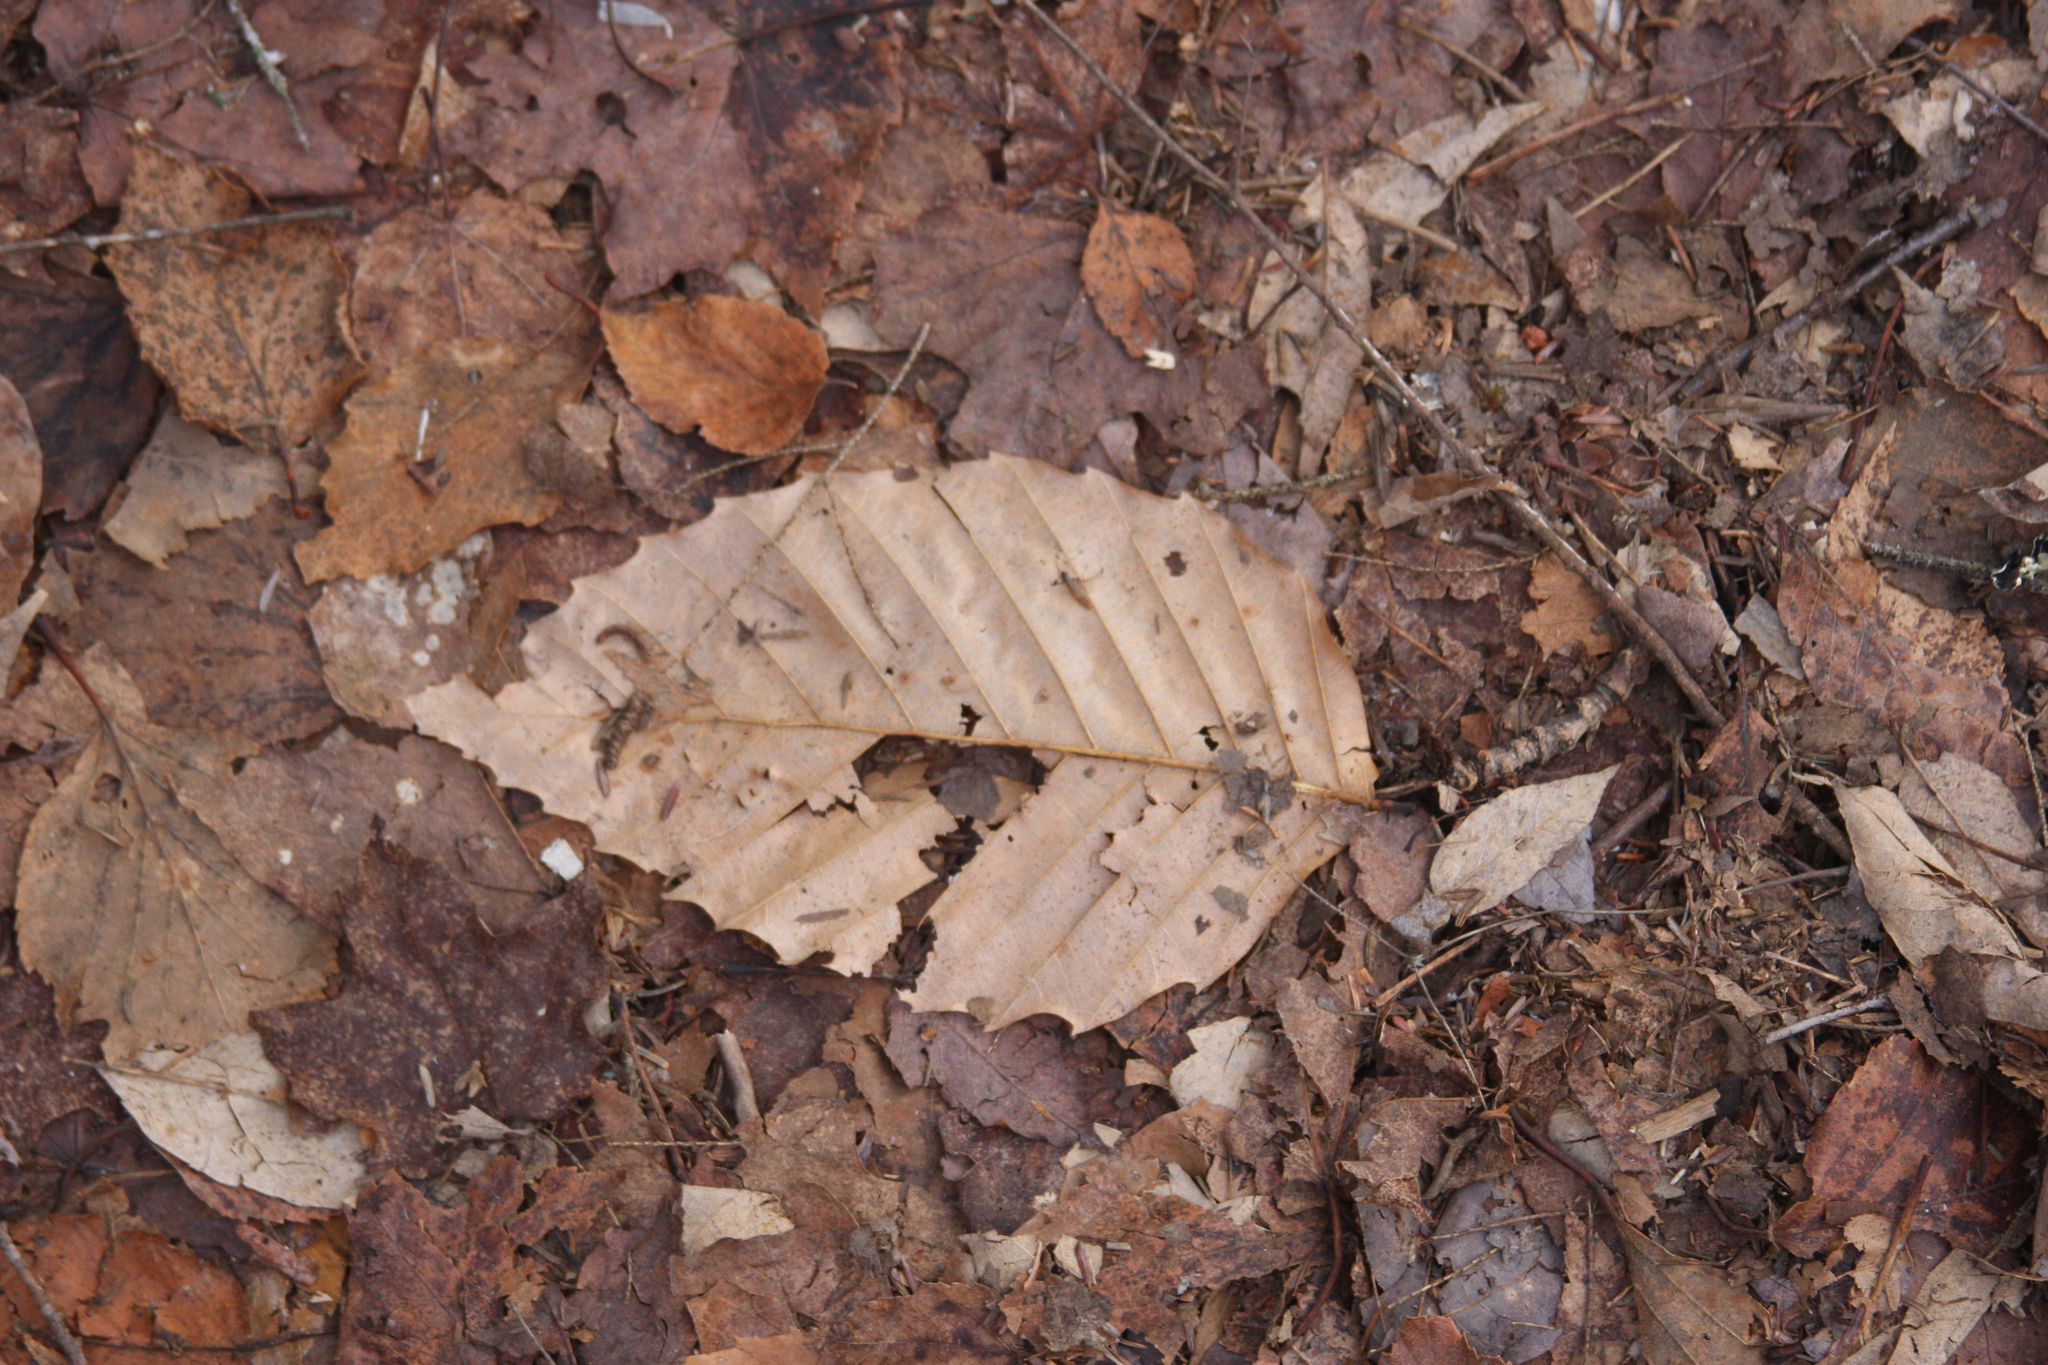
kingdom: Plantae
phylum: Tracheophyta
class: Magnoliopsida
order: Fagales
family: Fagaceae
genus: Fagus
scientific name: Fagus grandifolia
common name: American beech
